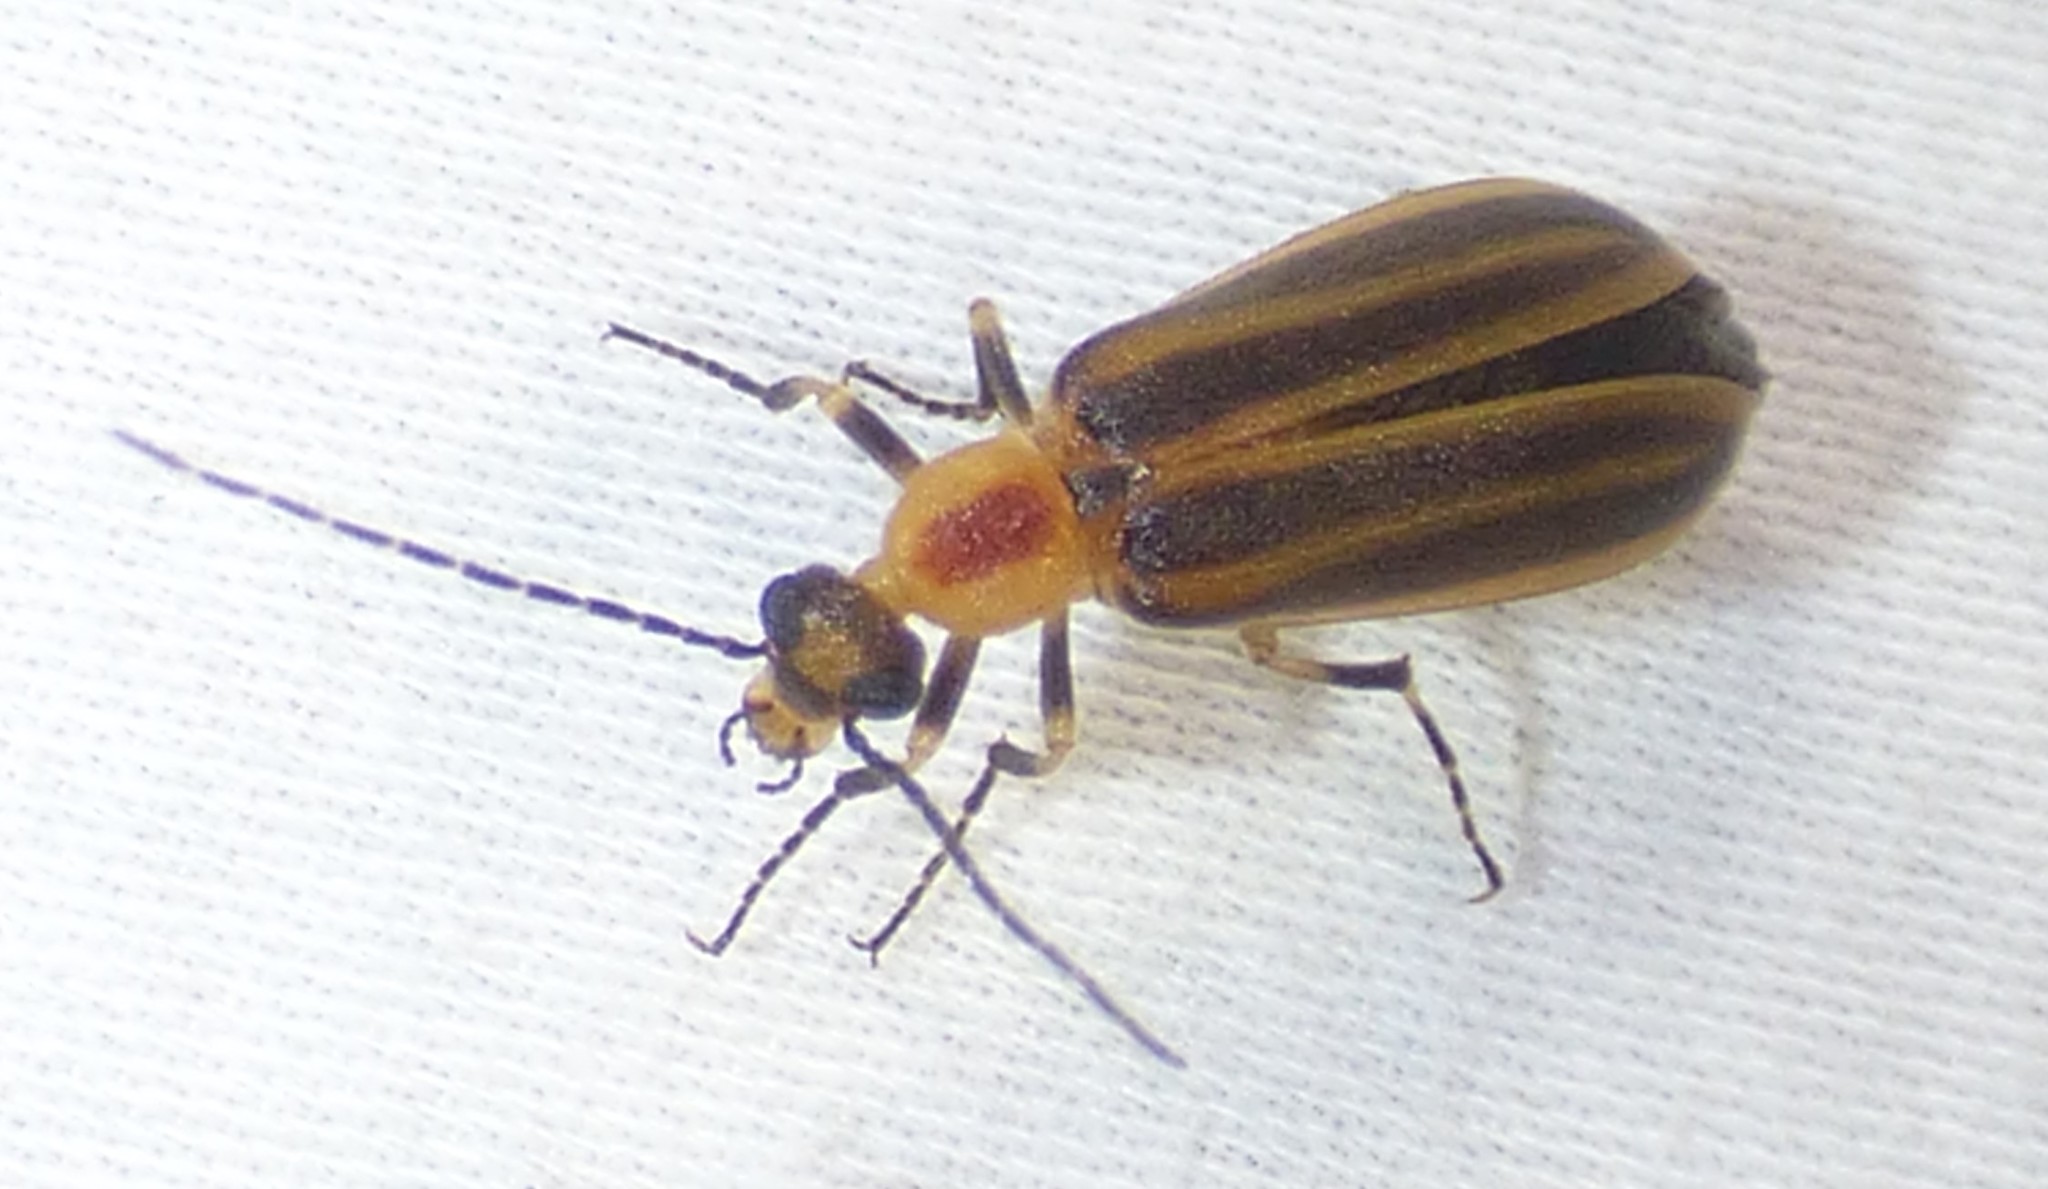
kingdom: Animalia
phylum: Arthropoda
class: Insecta
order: Coleoptera
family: Meloidae
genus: Pseudozonitis
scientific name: Pseudozonitis longicornis
